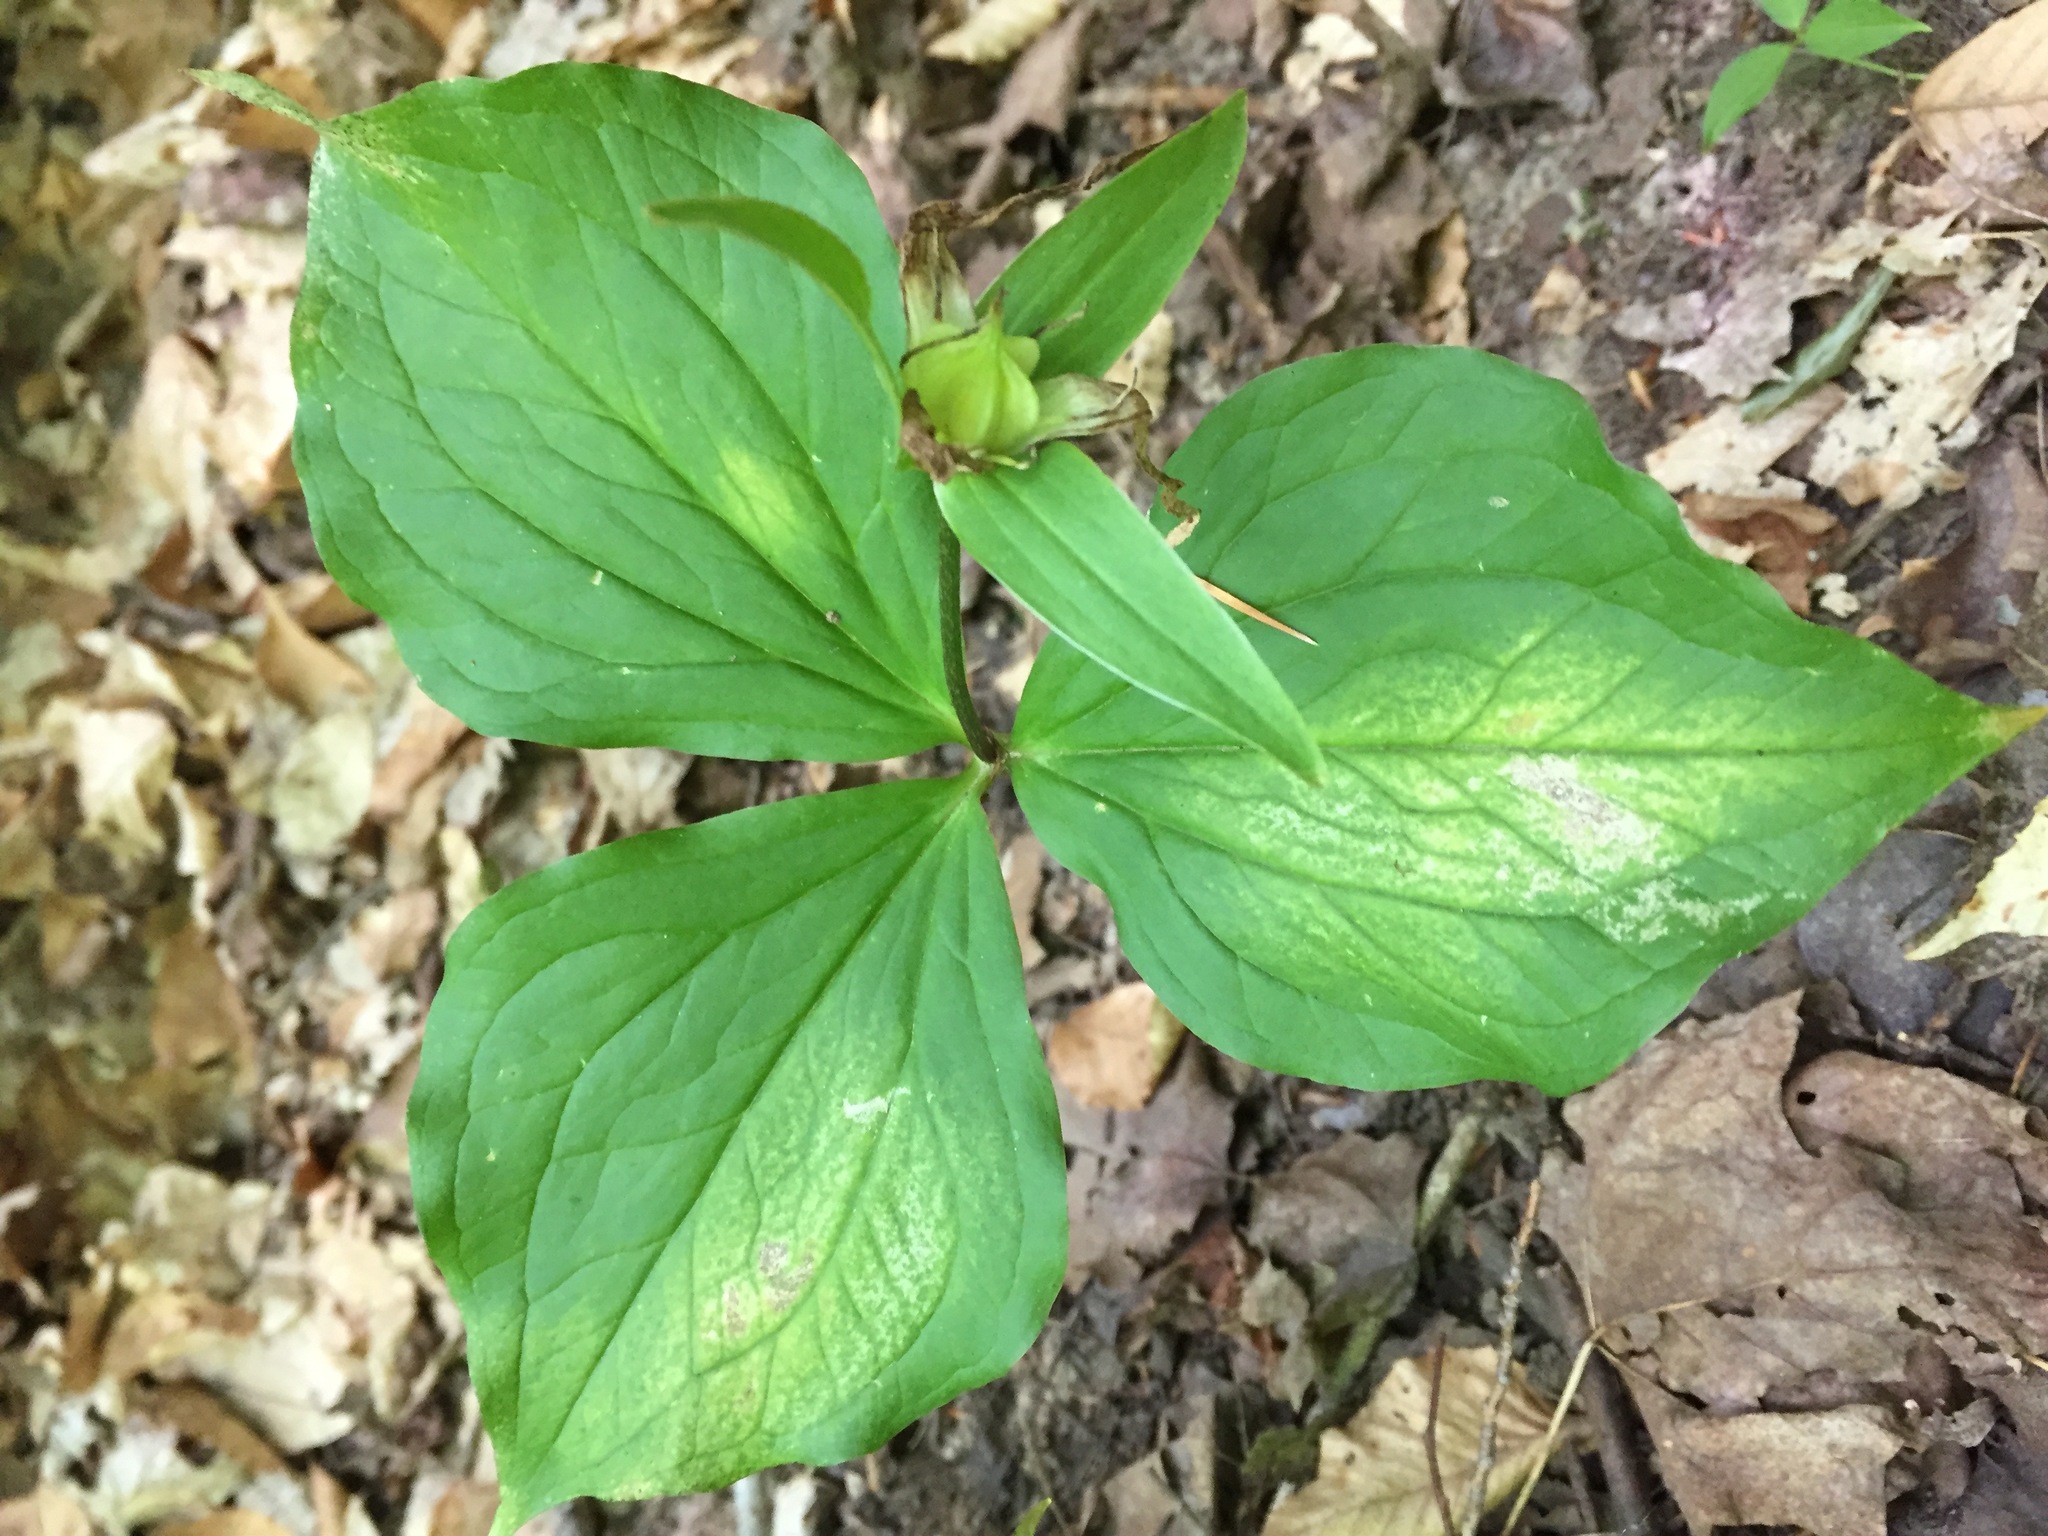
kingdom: Plantae
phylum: Tracheophyta
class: Liliopsida
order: Liliales
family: Melanthiaceae
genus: Trillium
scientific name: Trillium grandiflorum
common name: Great white trillium
